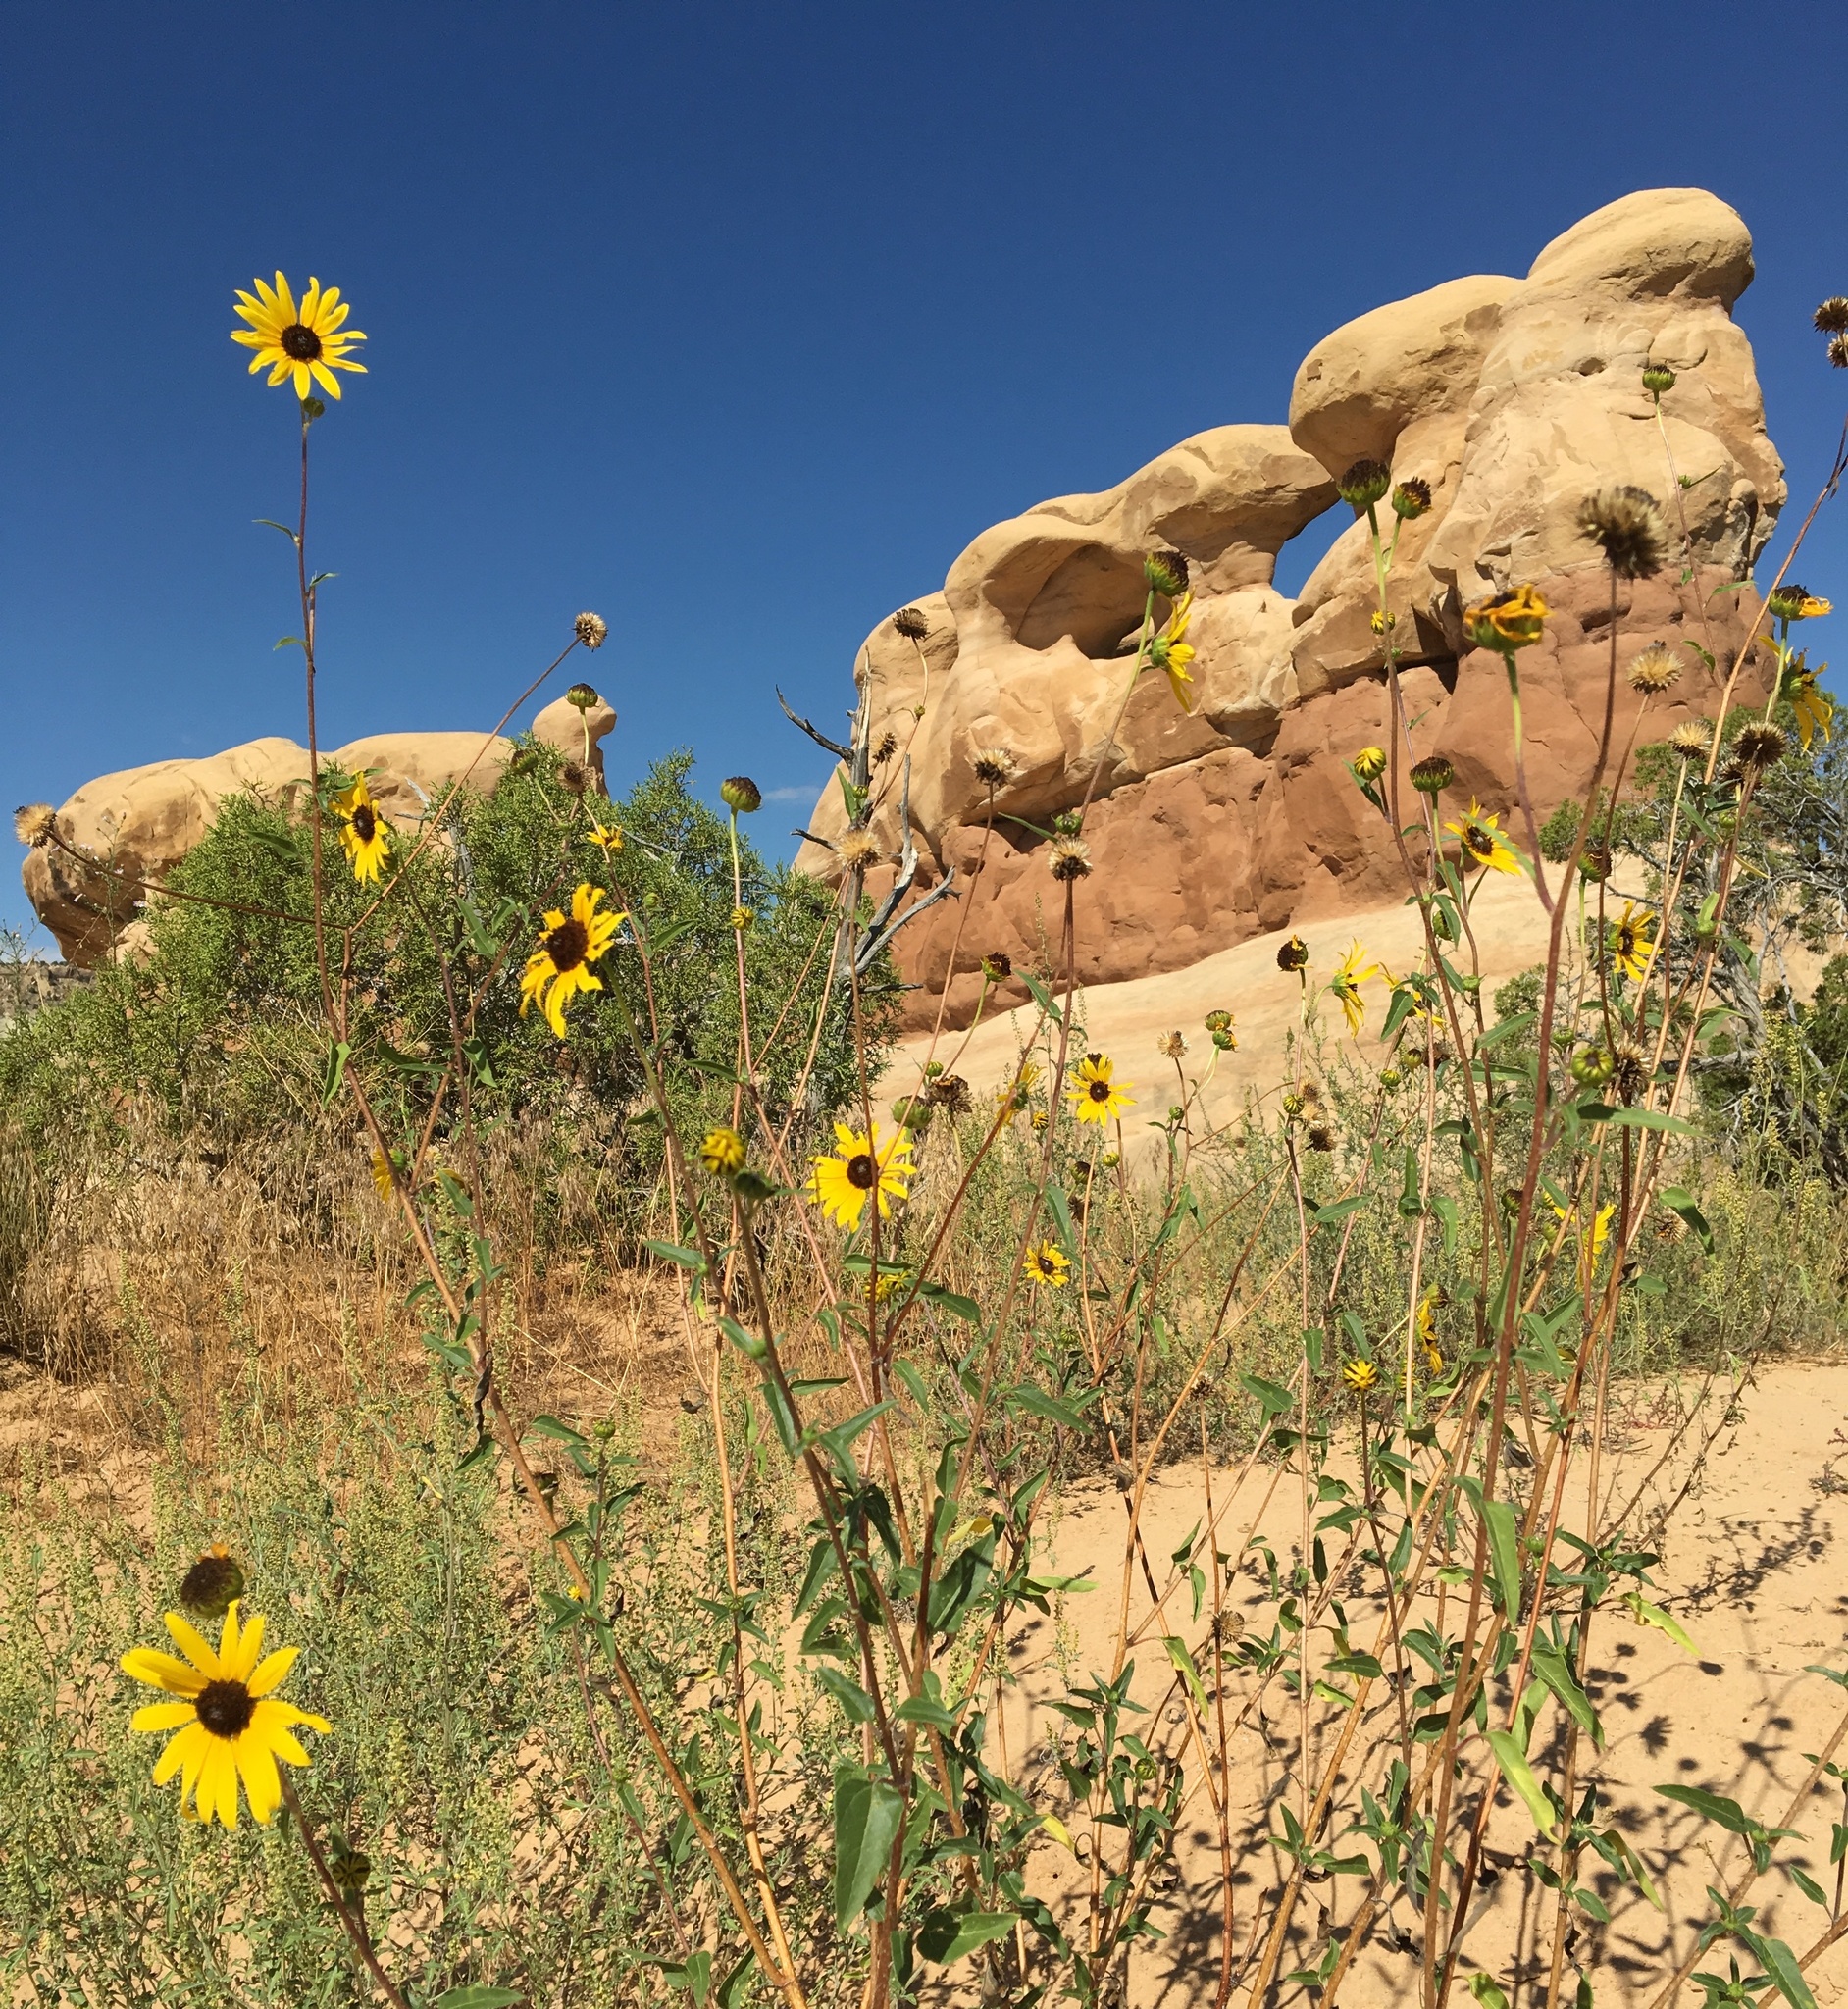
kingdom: Plantae
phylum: Tracheophyta
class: Magnoliopsida
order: Asterales
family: Asteraceae
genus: Helianthus
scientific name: Helianthus petiolaris
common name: Lesser sunflower
